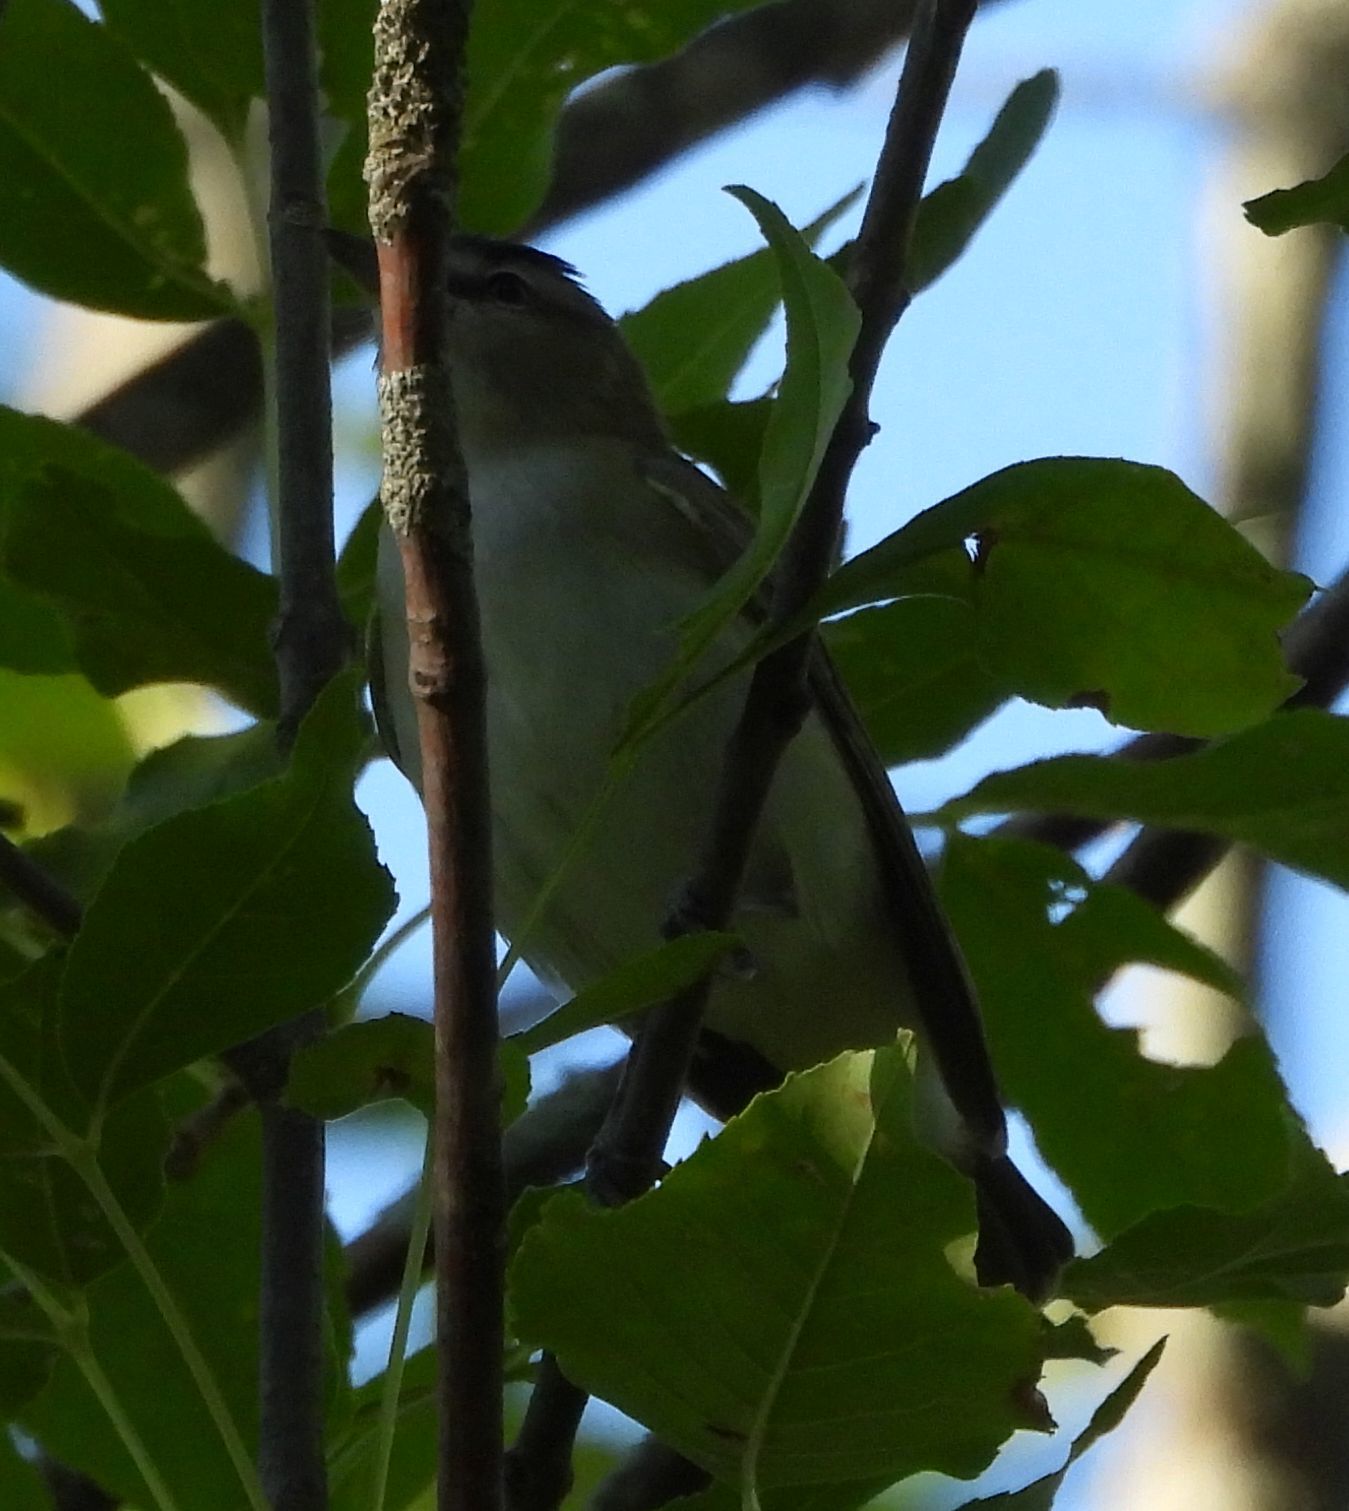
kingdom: Animalia
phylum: Chordata
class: Aves
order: Passeriformes
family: Vireonidae
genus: Vireo
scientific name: Vireo olivaceus
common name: Red-eyed vireo
